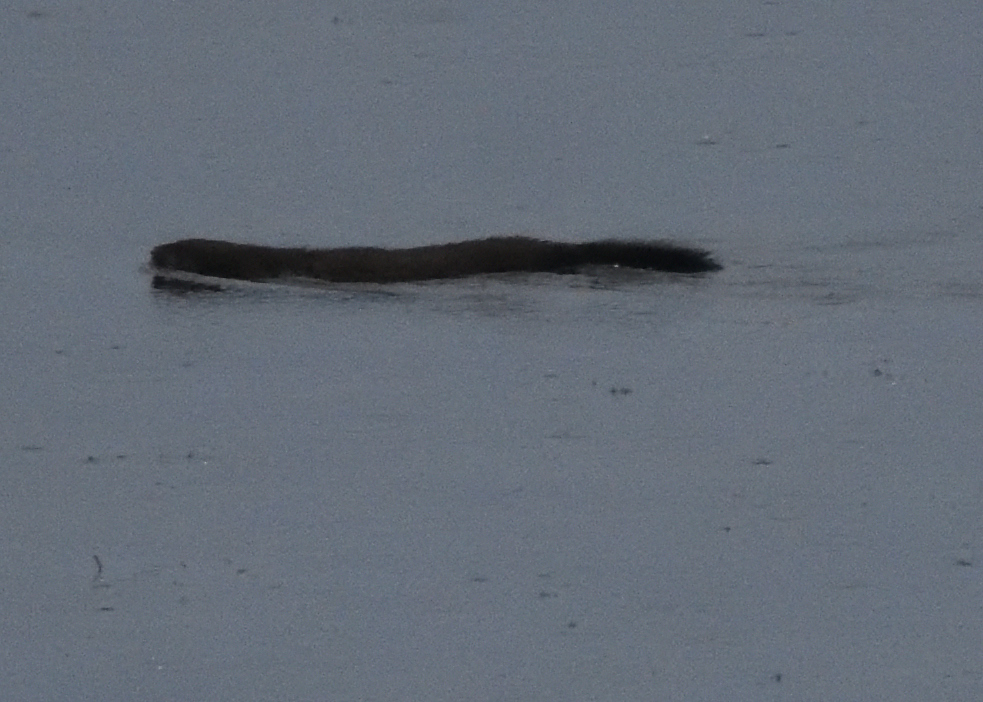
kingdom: Animalia
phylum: Chordata
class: Mammalia
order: Carnivora
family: Mustelidae
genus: Mustela
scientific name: Mustela
